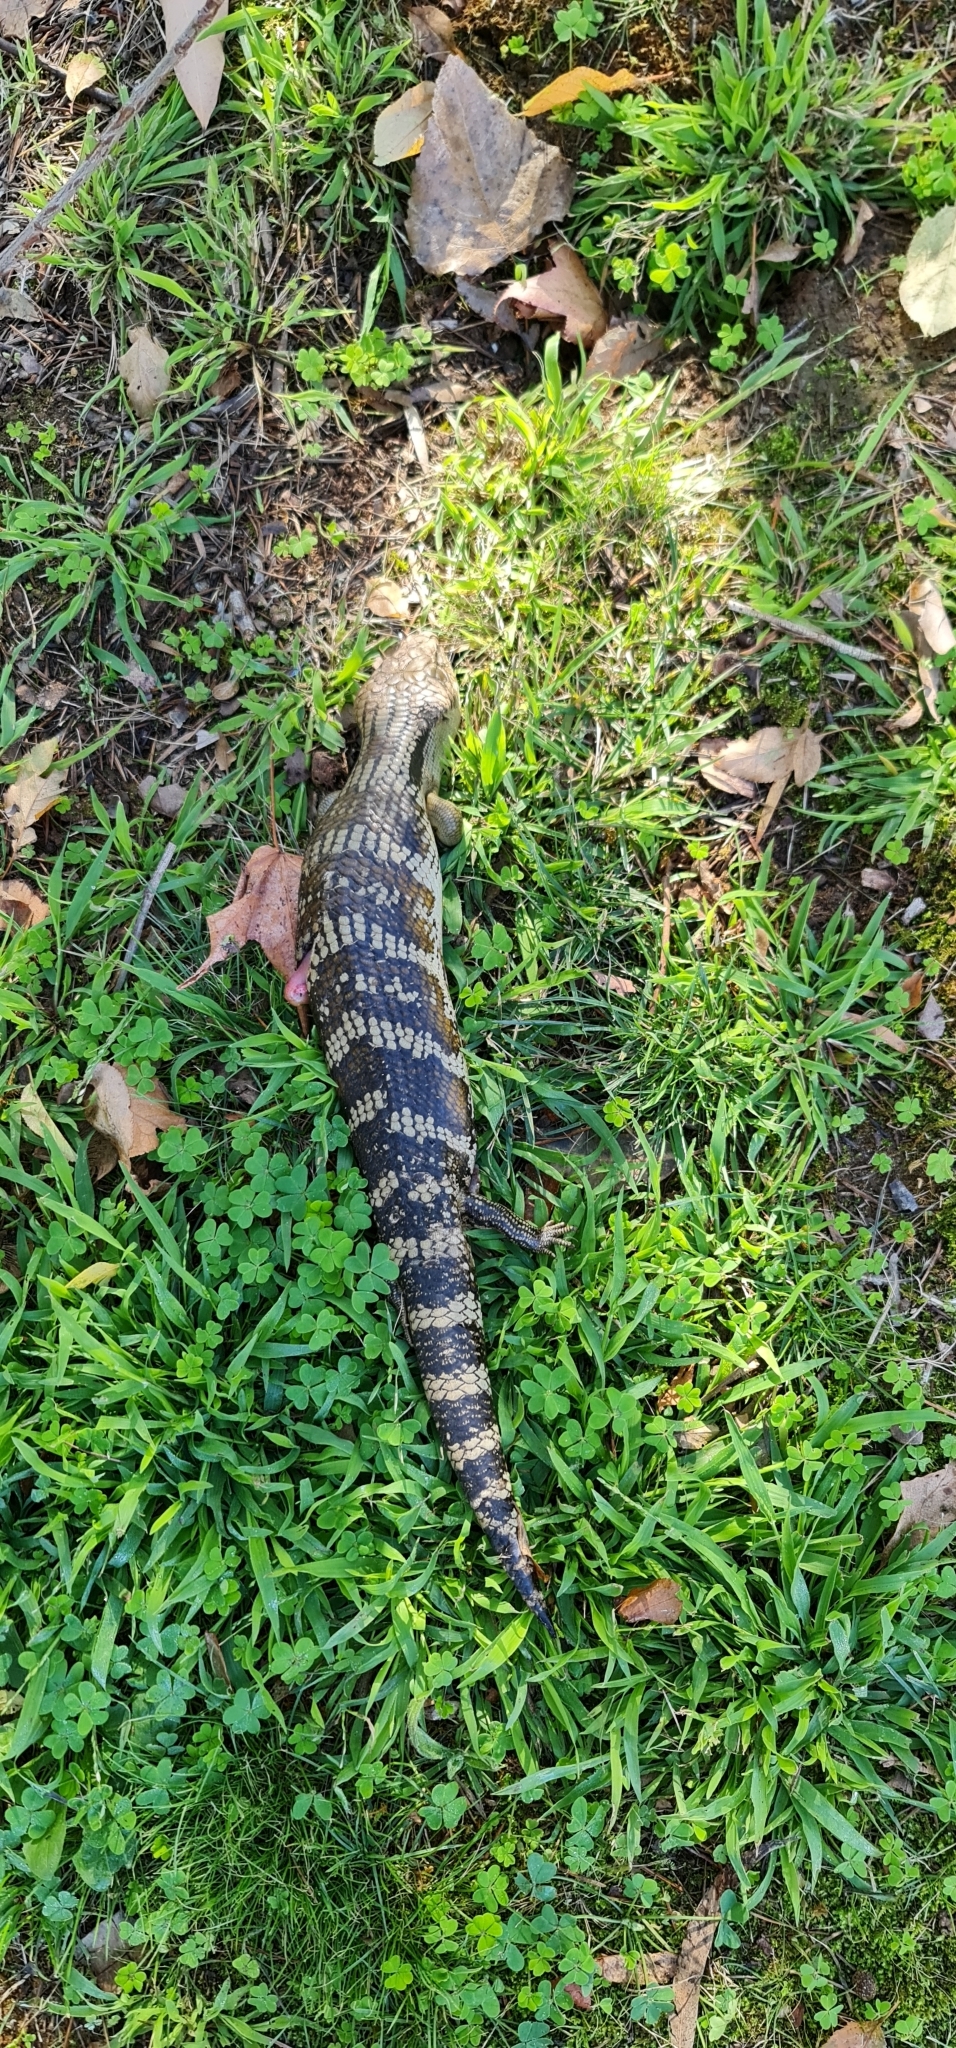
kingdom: Animalia
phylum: Chordata
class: Squamata
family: Scincidae
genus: Tiliqua
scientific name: Tiliqua scincoides
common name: Common bluetongue
